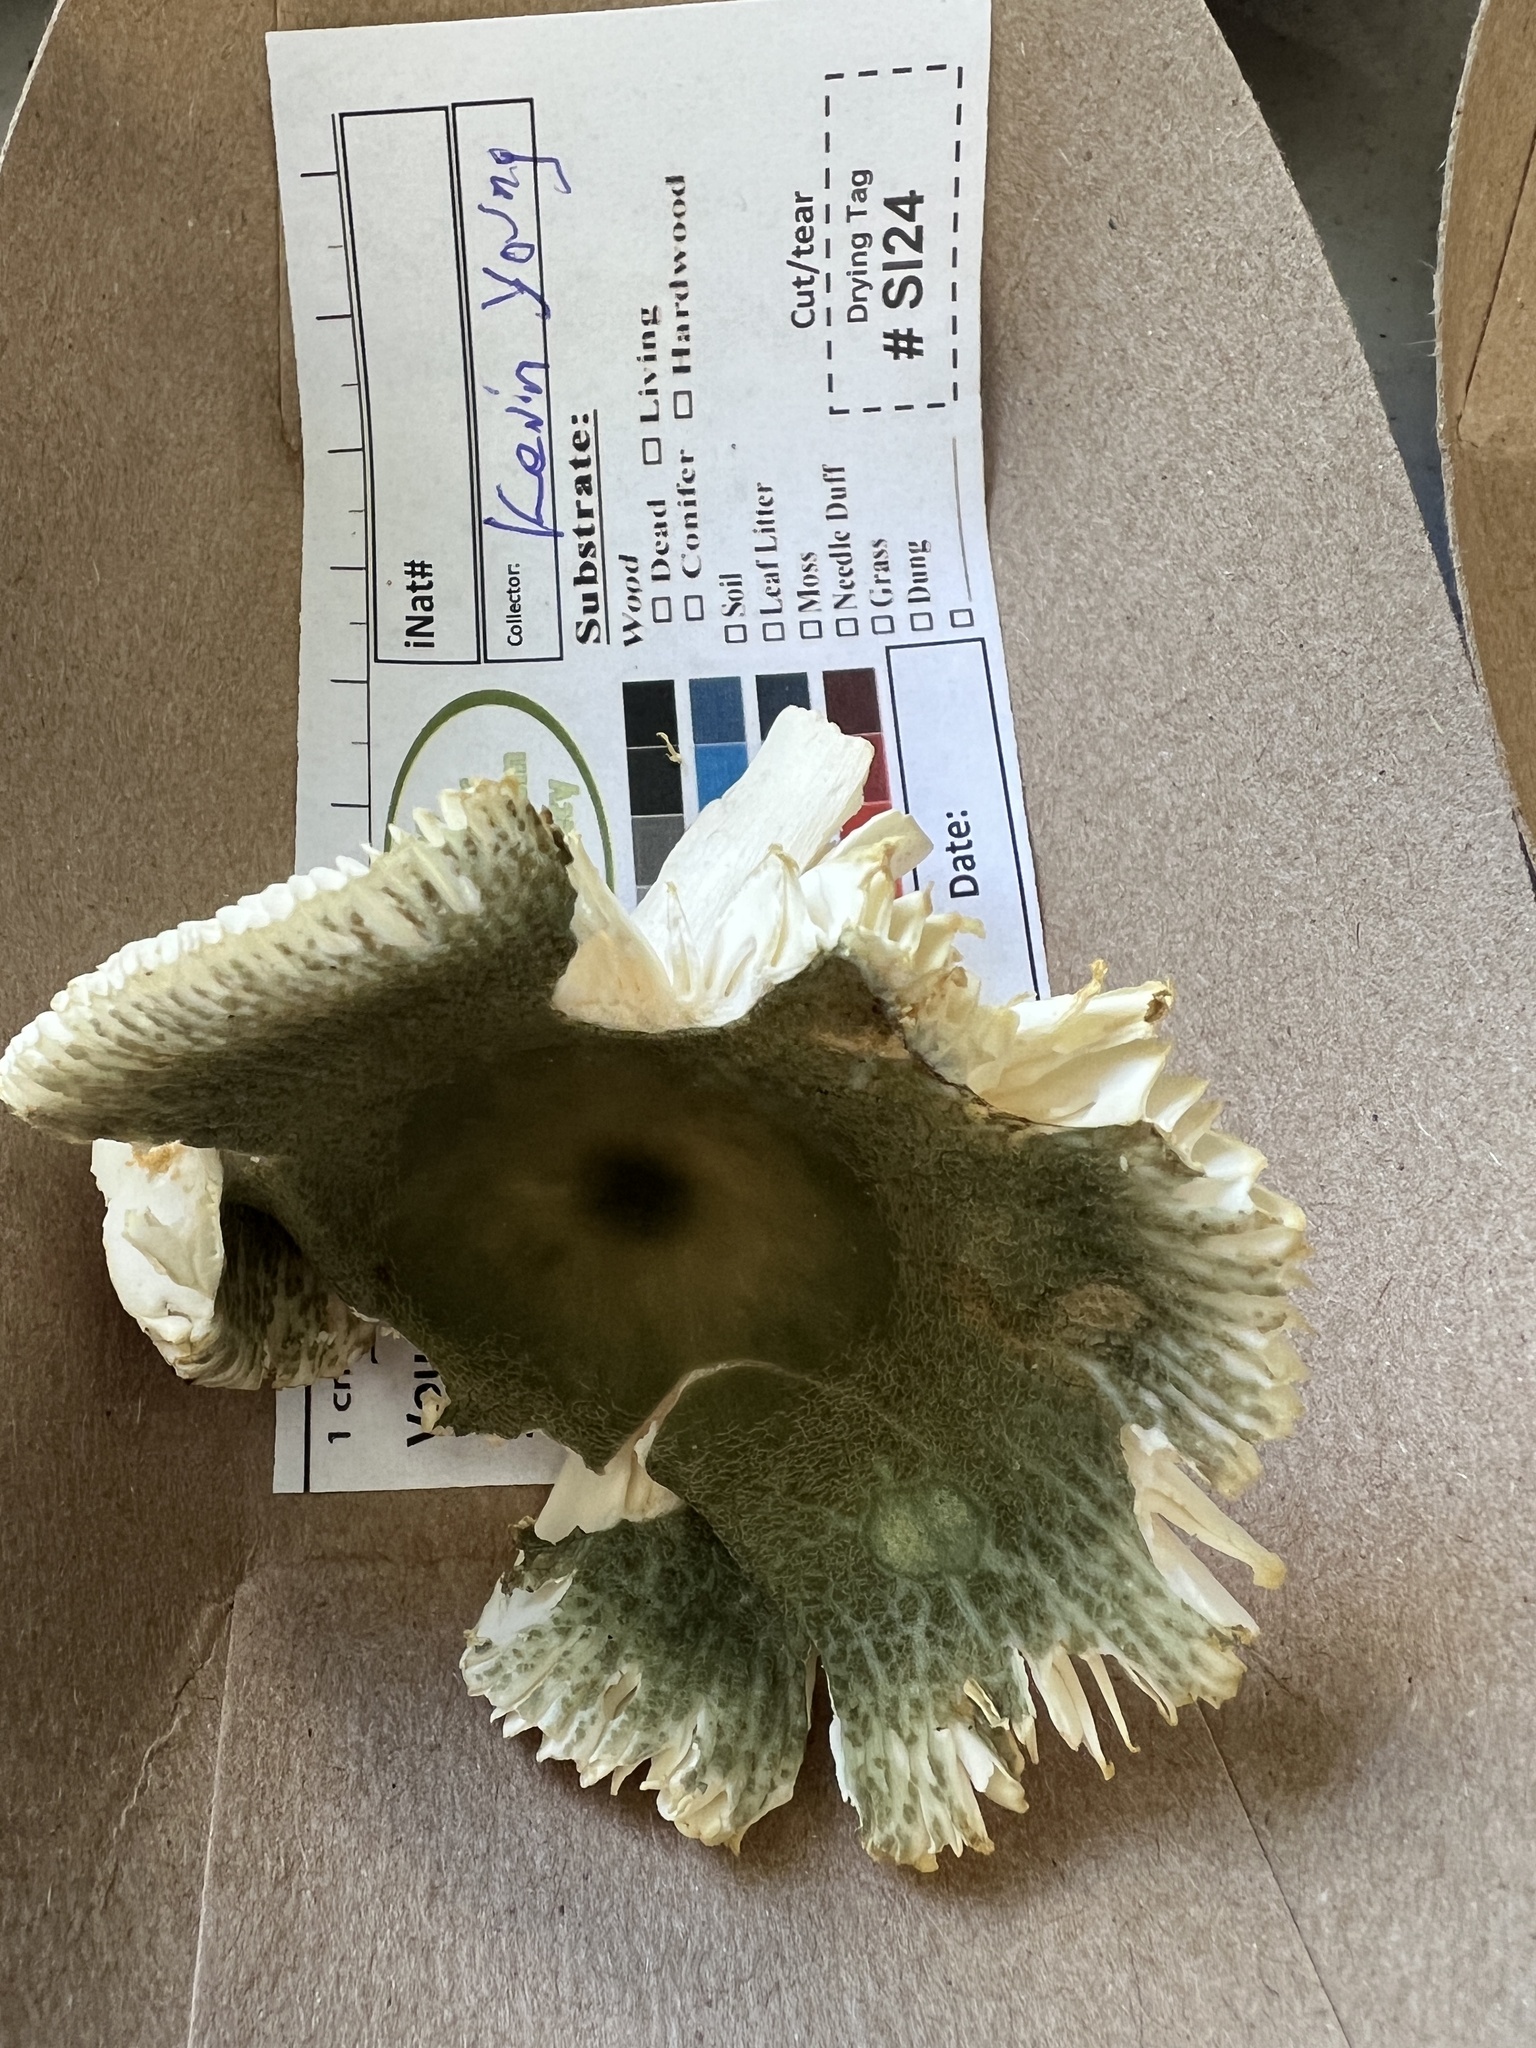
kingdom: Fungi
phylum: Basidiomycota
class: Agaricomycetes
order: Russulales
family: Russulaceae
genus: Russula
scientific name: Russula parvovirescens
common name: Blue-green cracking russula
